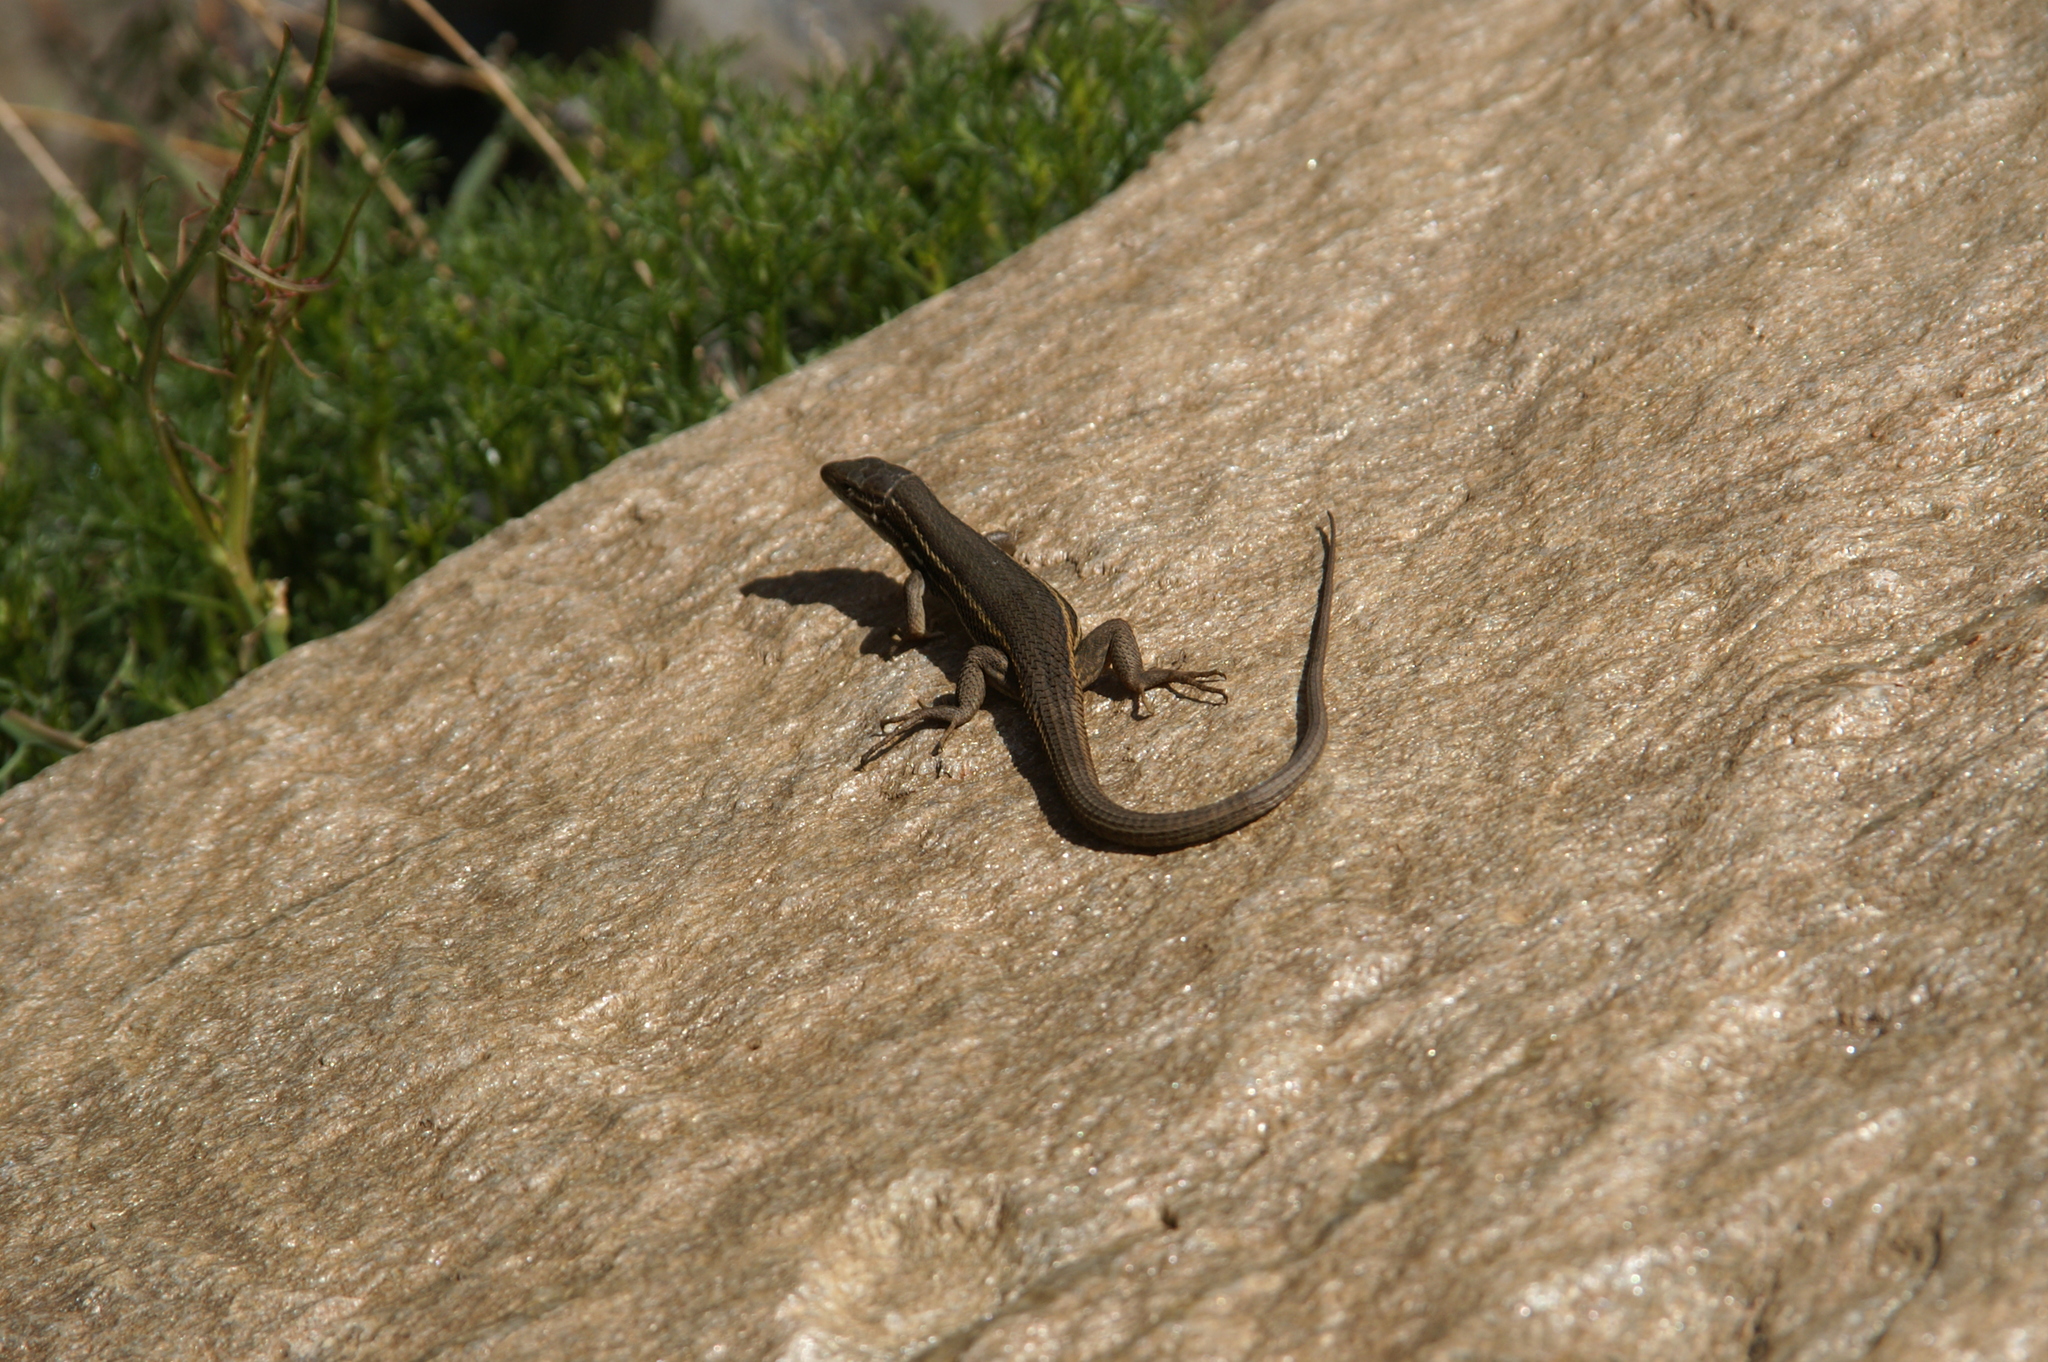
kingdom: Animalia
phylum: Chordata
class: Squamata
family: Lacertidae
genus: Psammodromus
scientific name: Psammodromus algirus
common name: Algerian psammodromus
